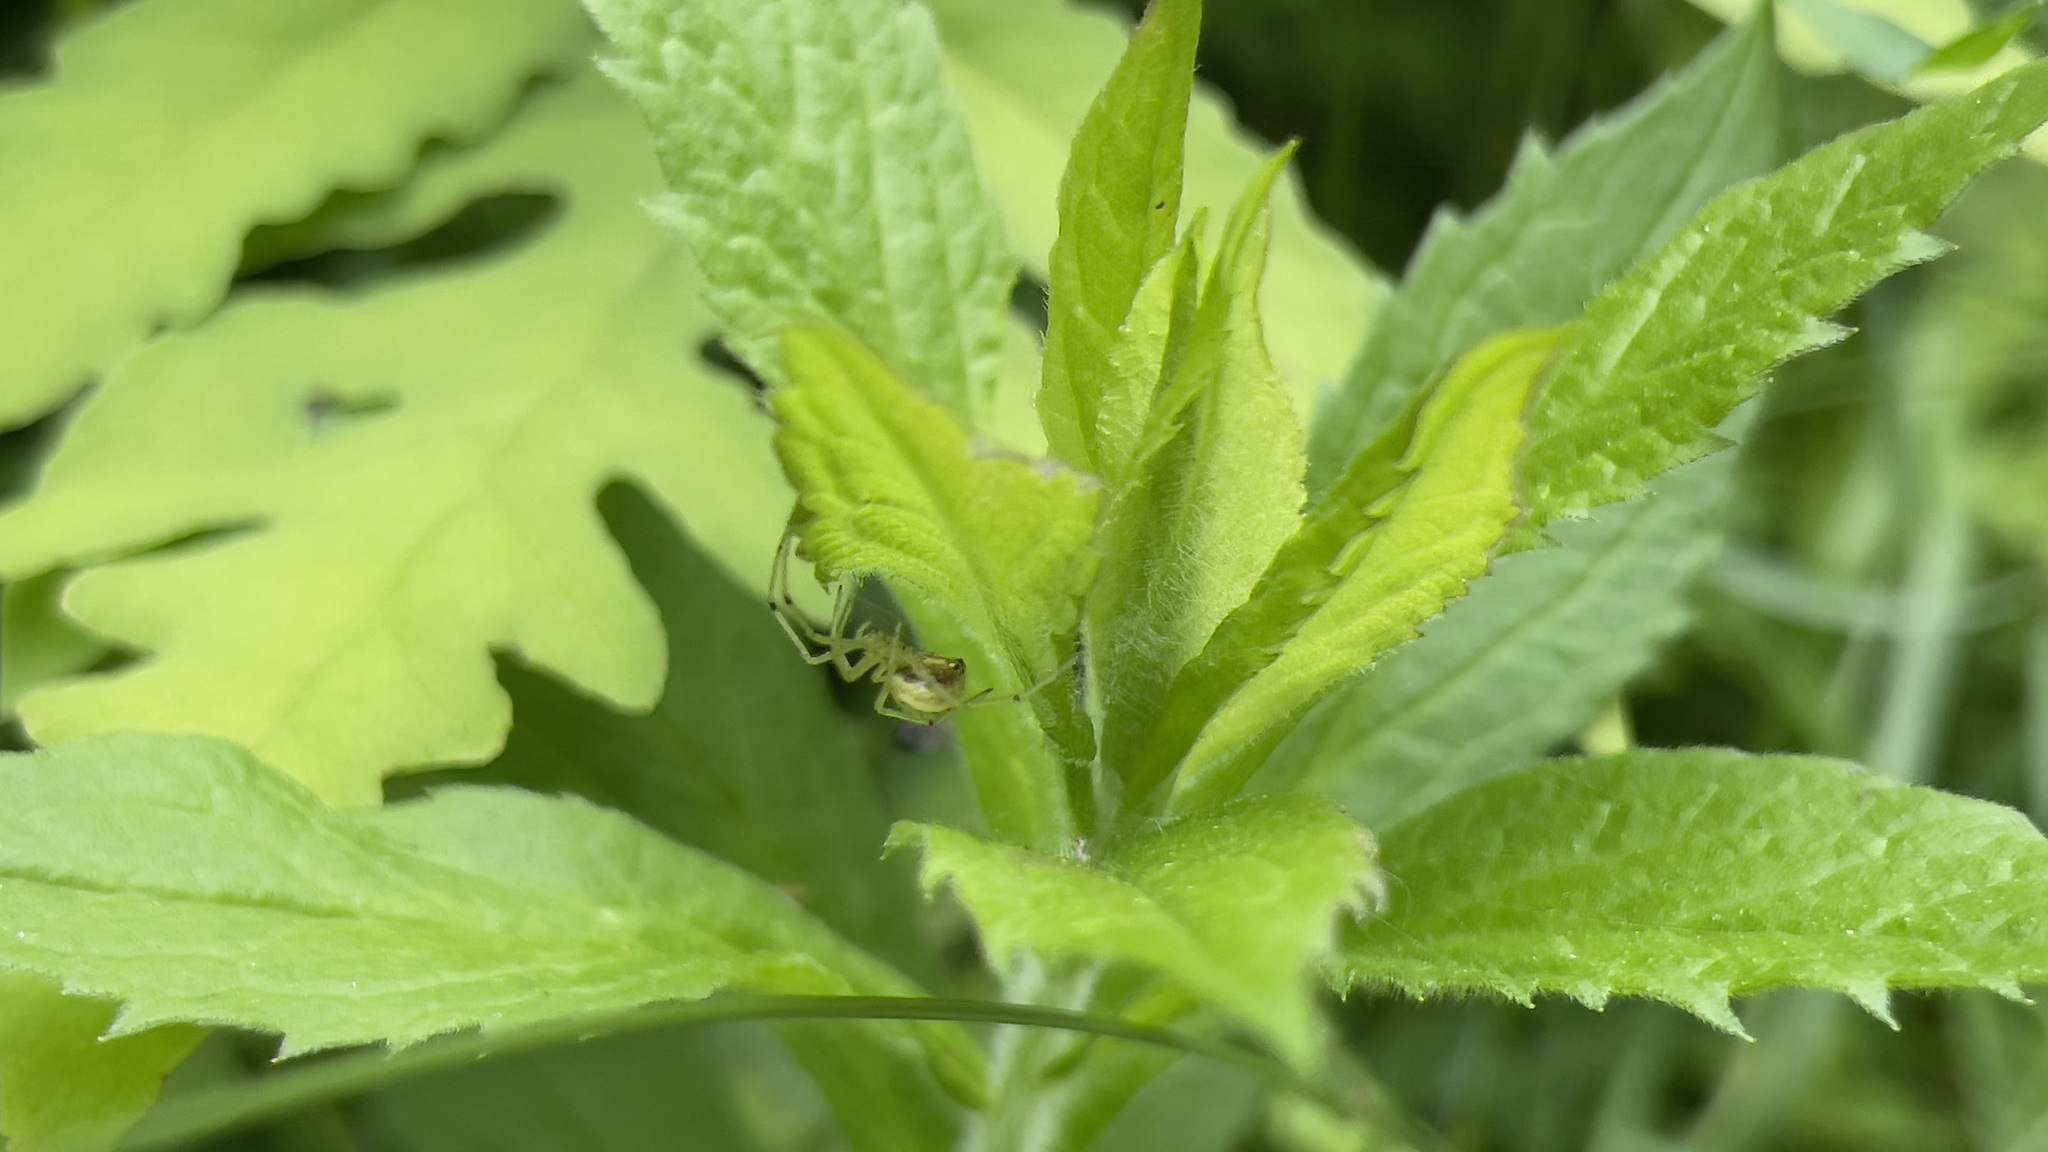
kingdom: Animalia
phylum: Arthropoda
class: Arachnida
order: Araneae
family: Theridiidae
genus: Enoplognatha
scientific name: Enoplognatha ovata
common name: Common candy-striped spider
